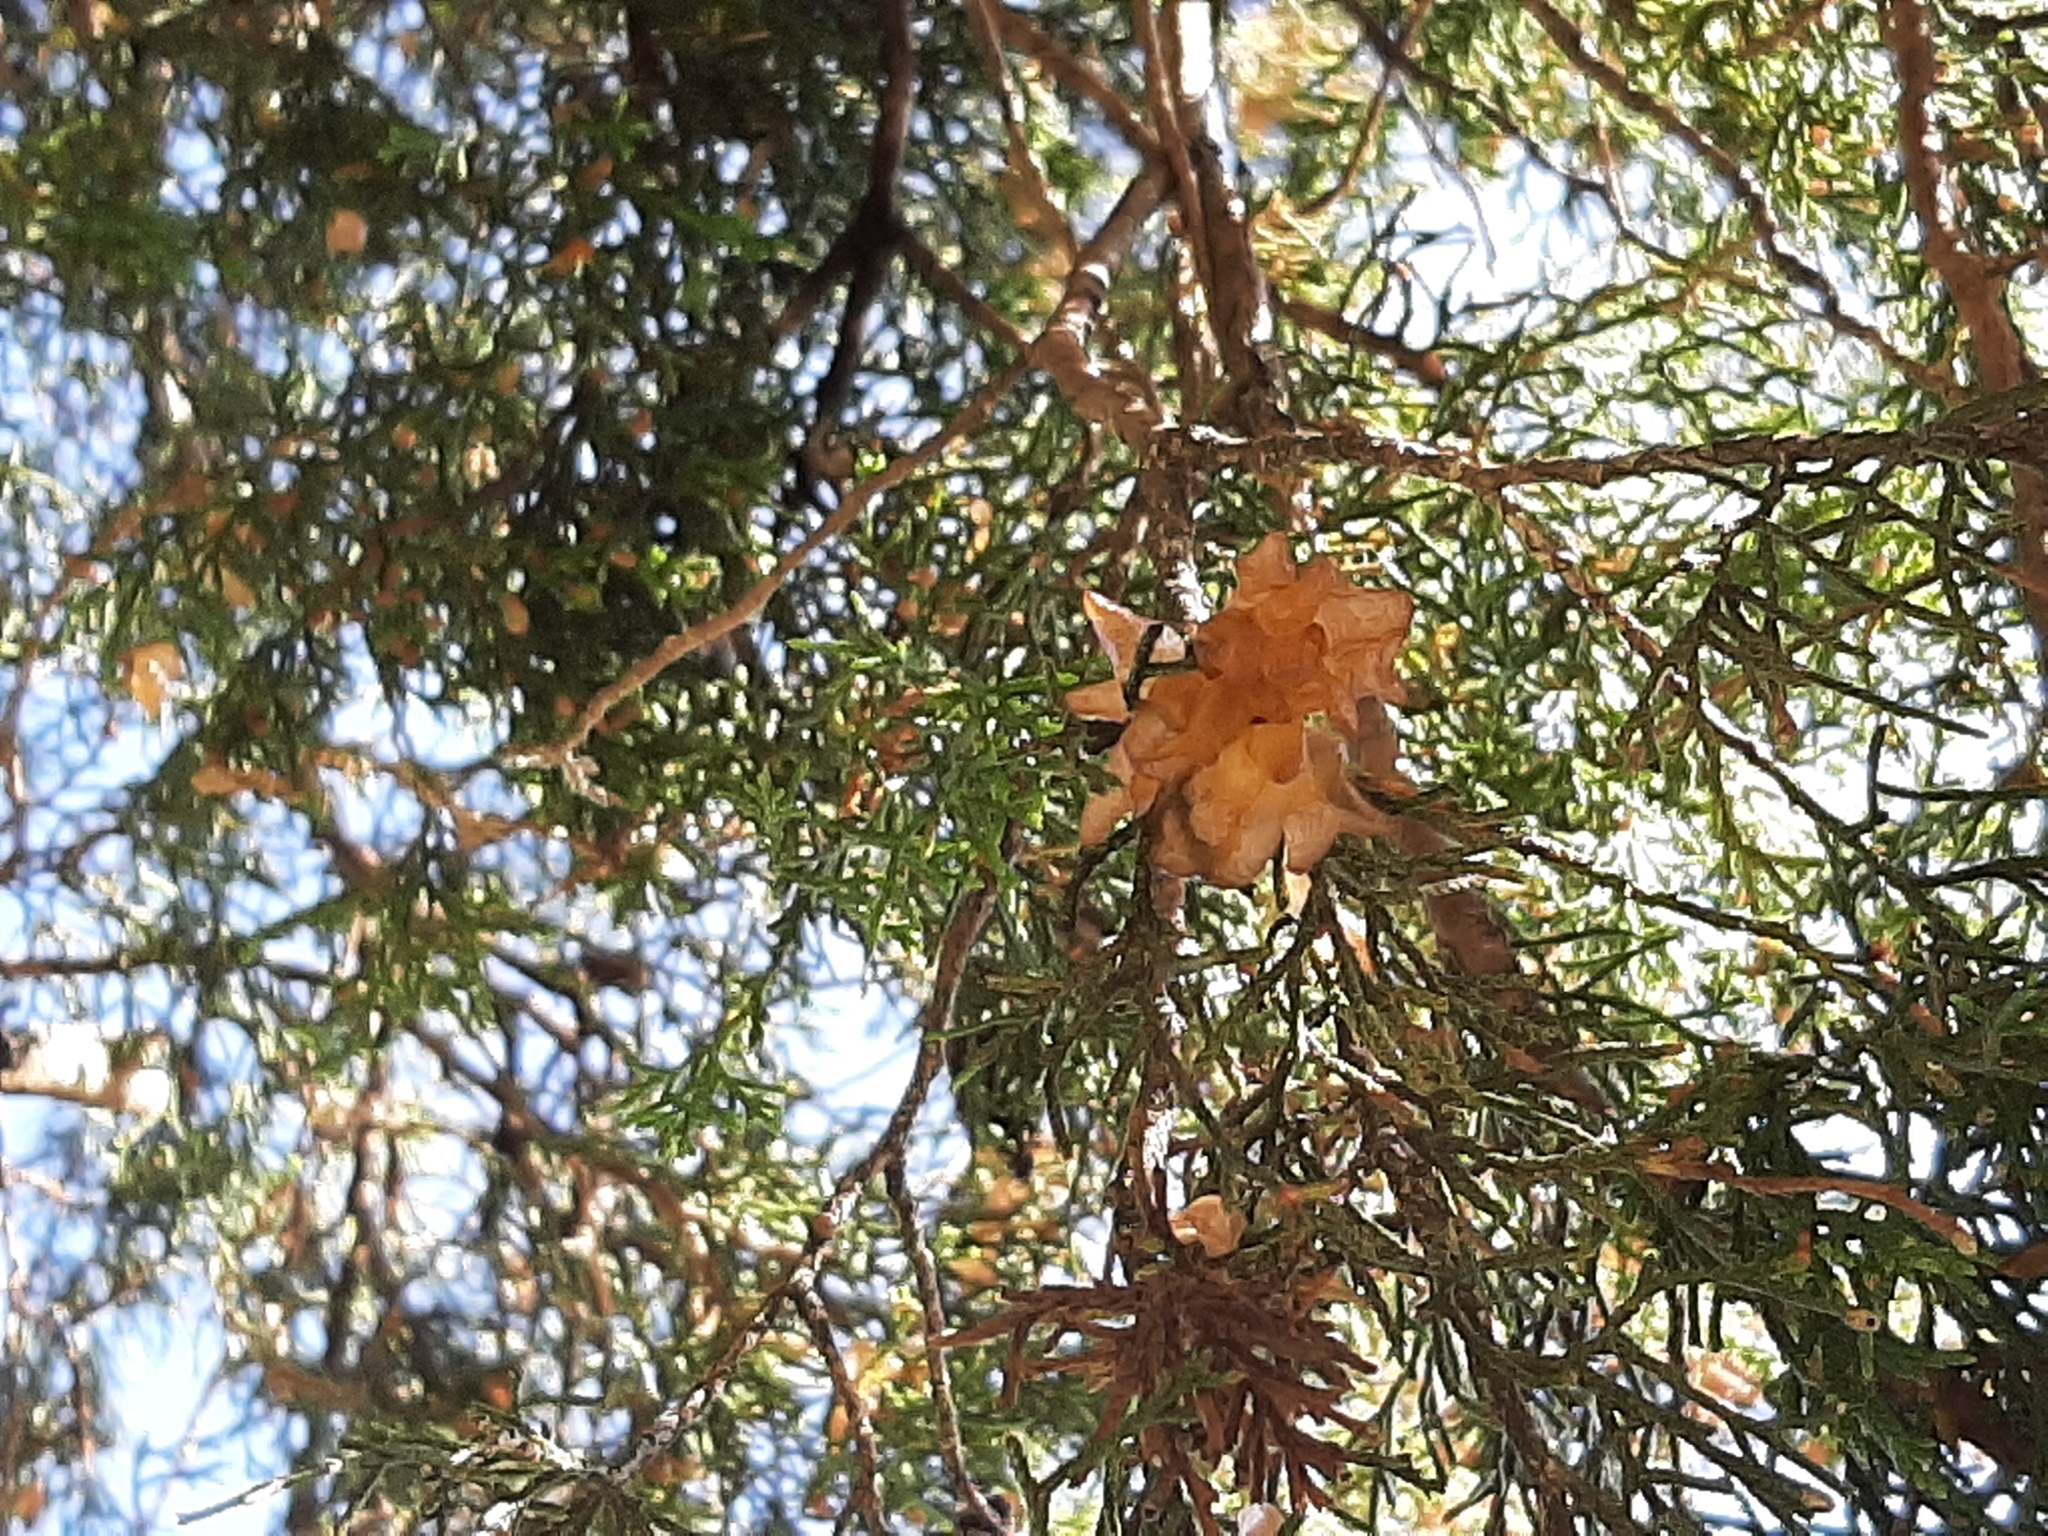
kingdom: Fungi
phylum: Basidiomycota
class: Pucciniomycetes
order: Pucciniales
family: Gymnosporangiaceae
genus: Gymnosporangium
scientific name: Gymnosporangium juniperi-virginianae
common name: Juniper-apple rust
